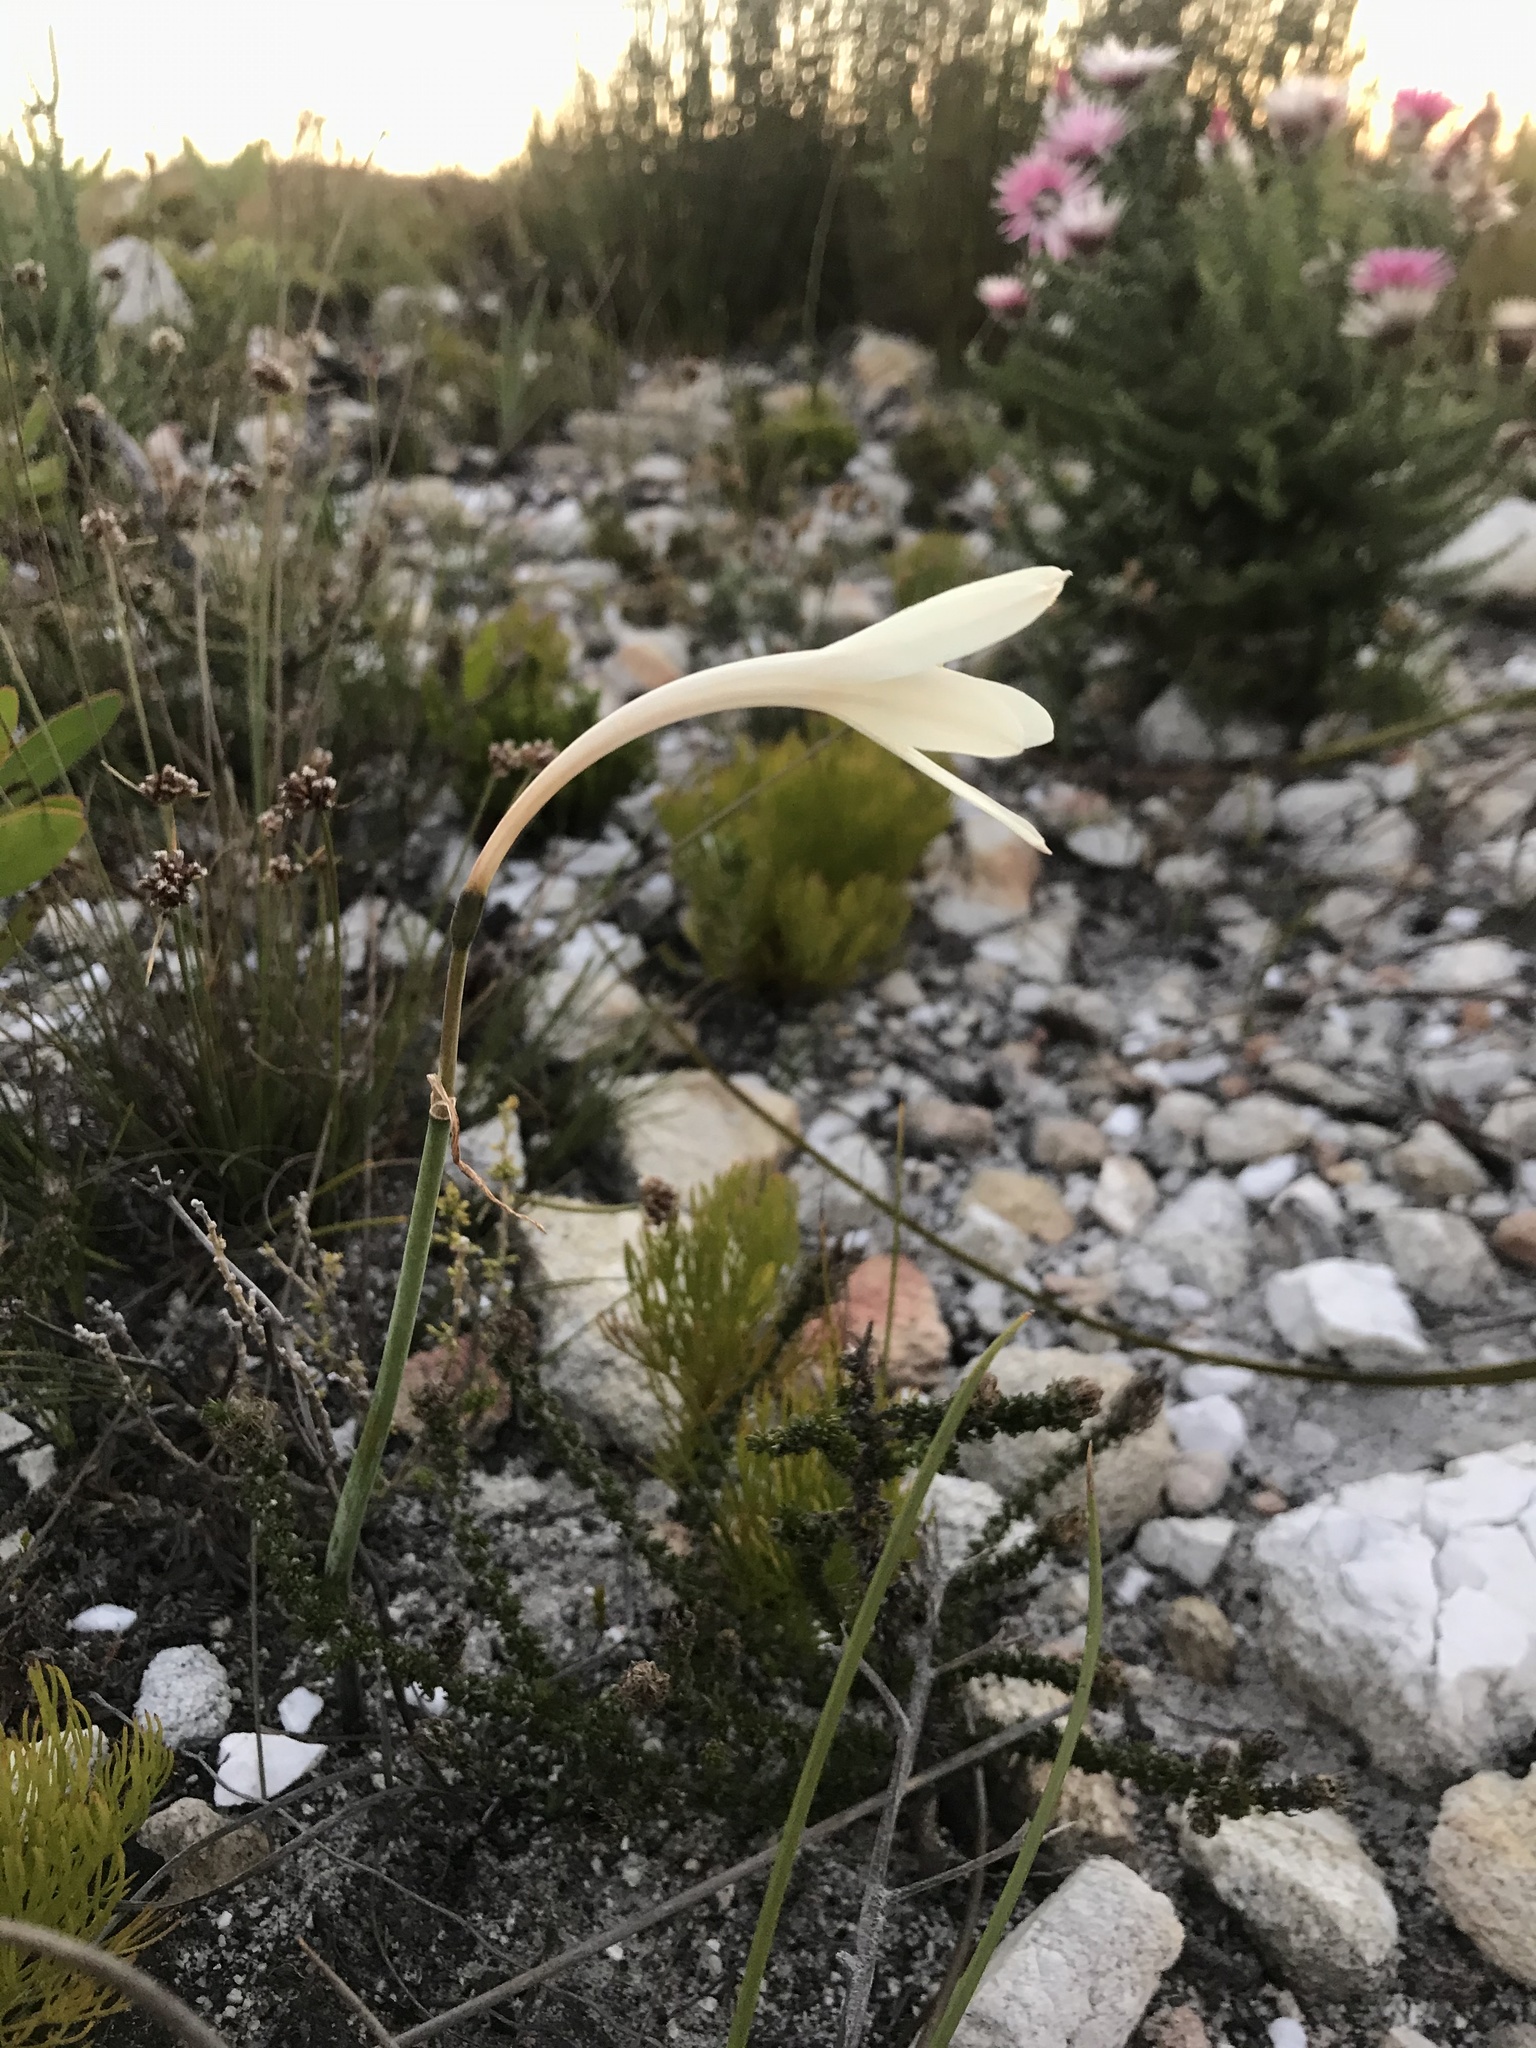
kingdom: Plantae
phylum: Tracheophyta
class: Liliopsida
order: Asparagales
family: Amaryllidaceae
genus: Cyrtanthus
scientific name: Cyrtanthus leucanthus
